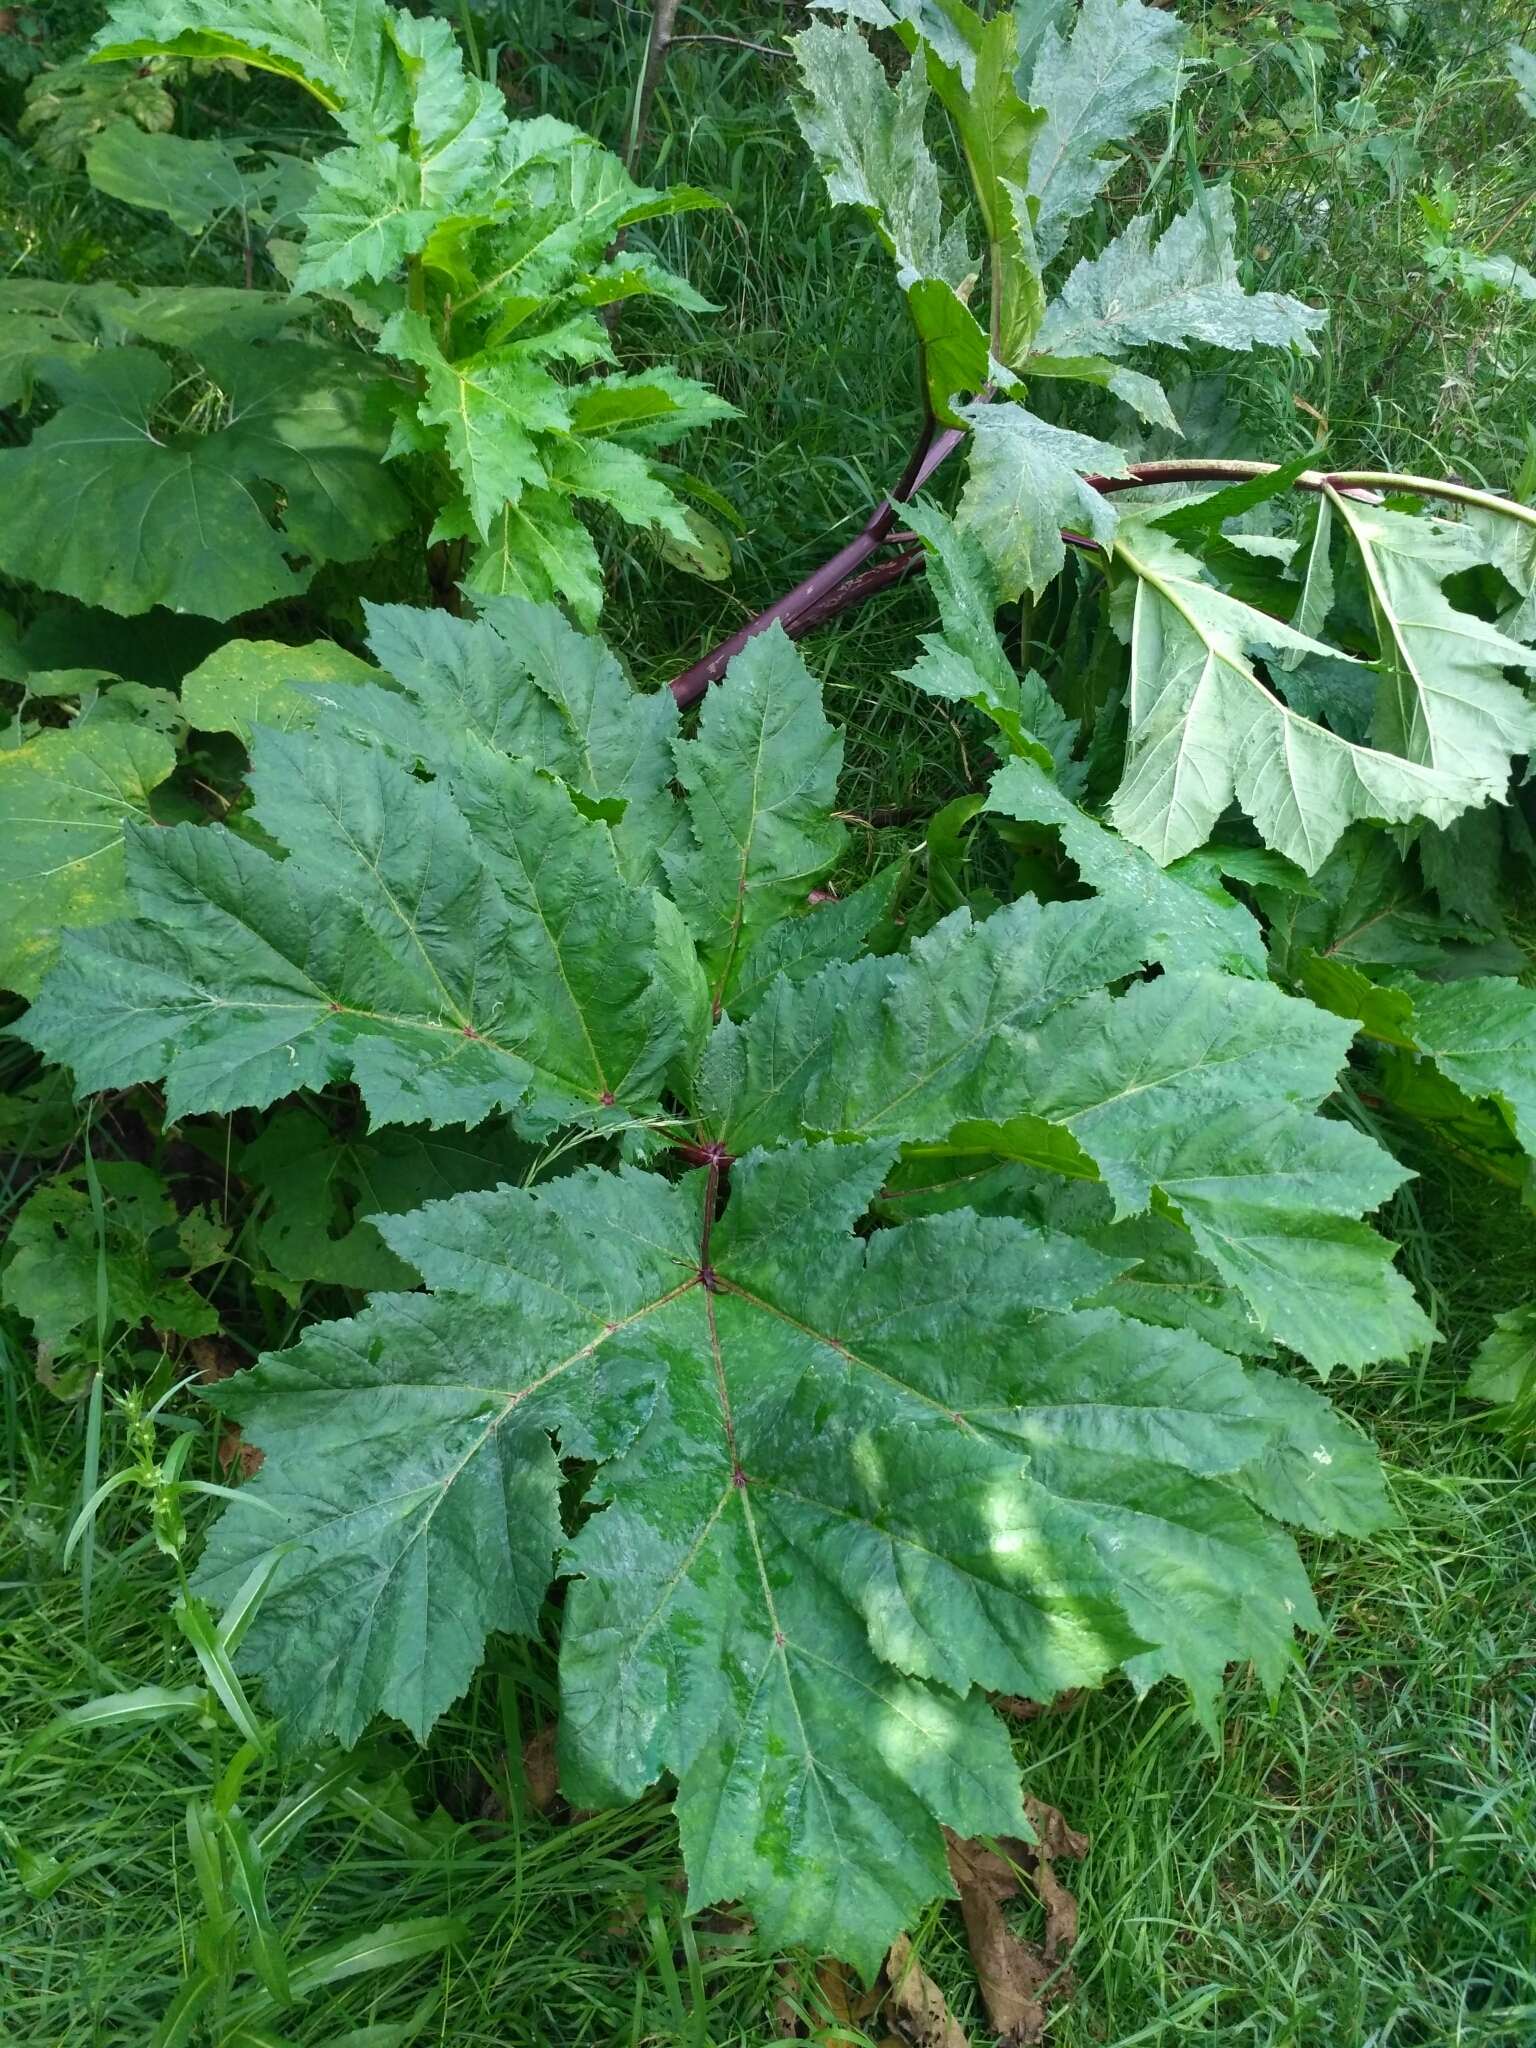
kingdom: Plantae
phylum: Tracheophyta
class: Magnoliopsida
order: Apiales
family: Apiaceae
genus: Heracleum
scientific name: Heracleum sosnowskyi
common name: Sosnowsky's hogweed
